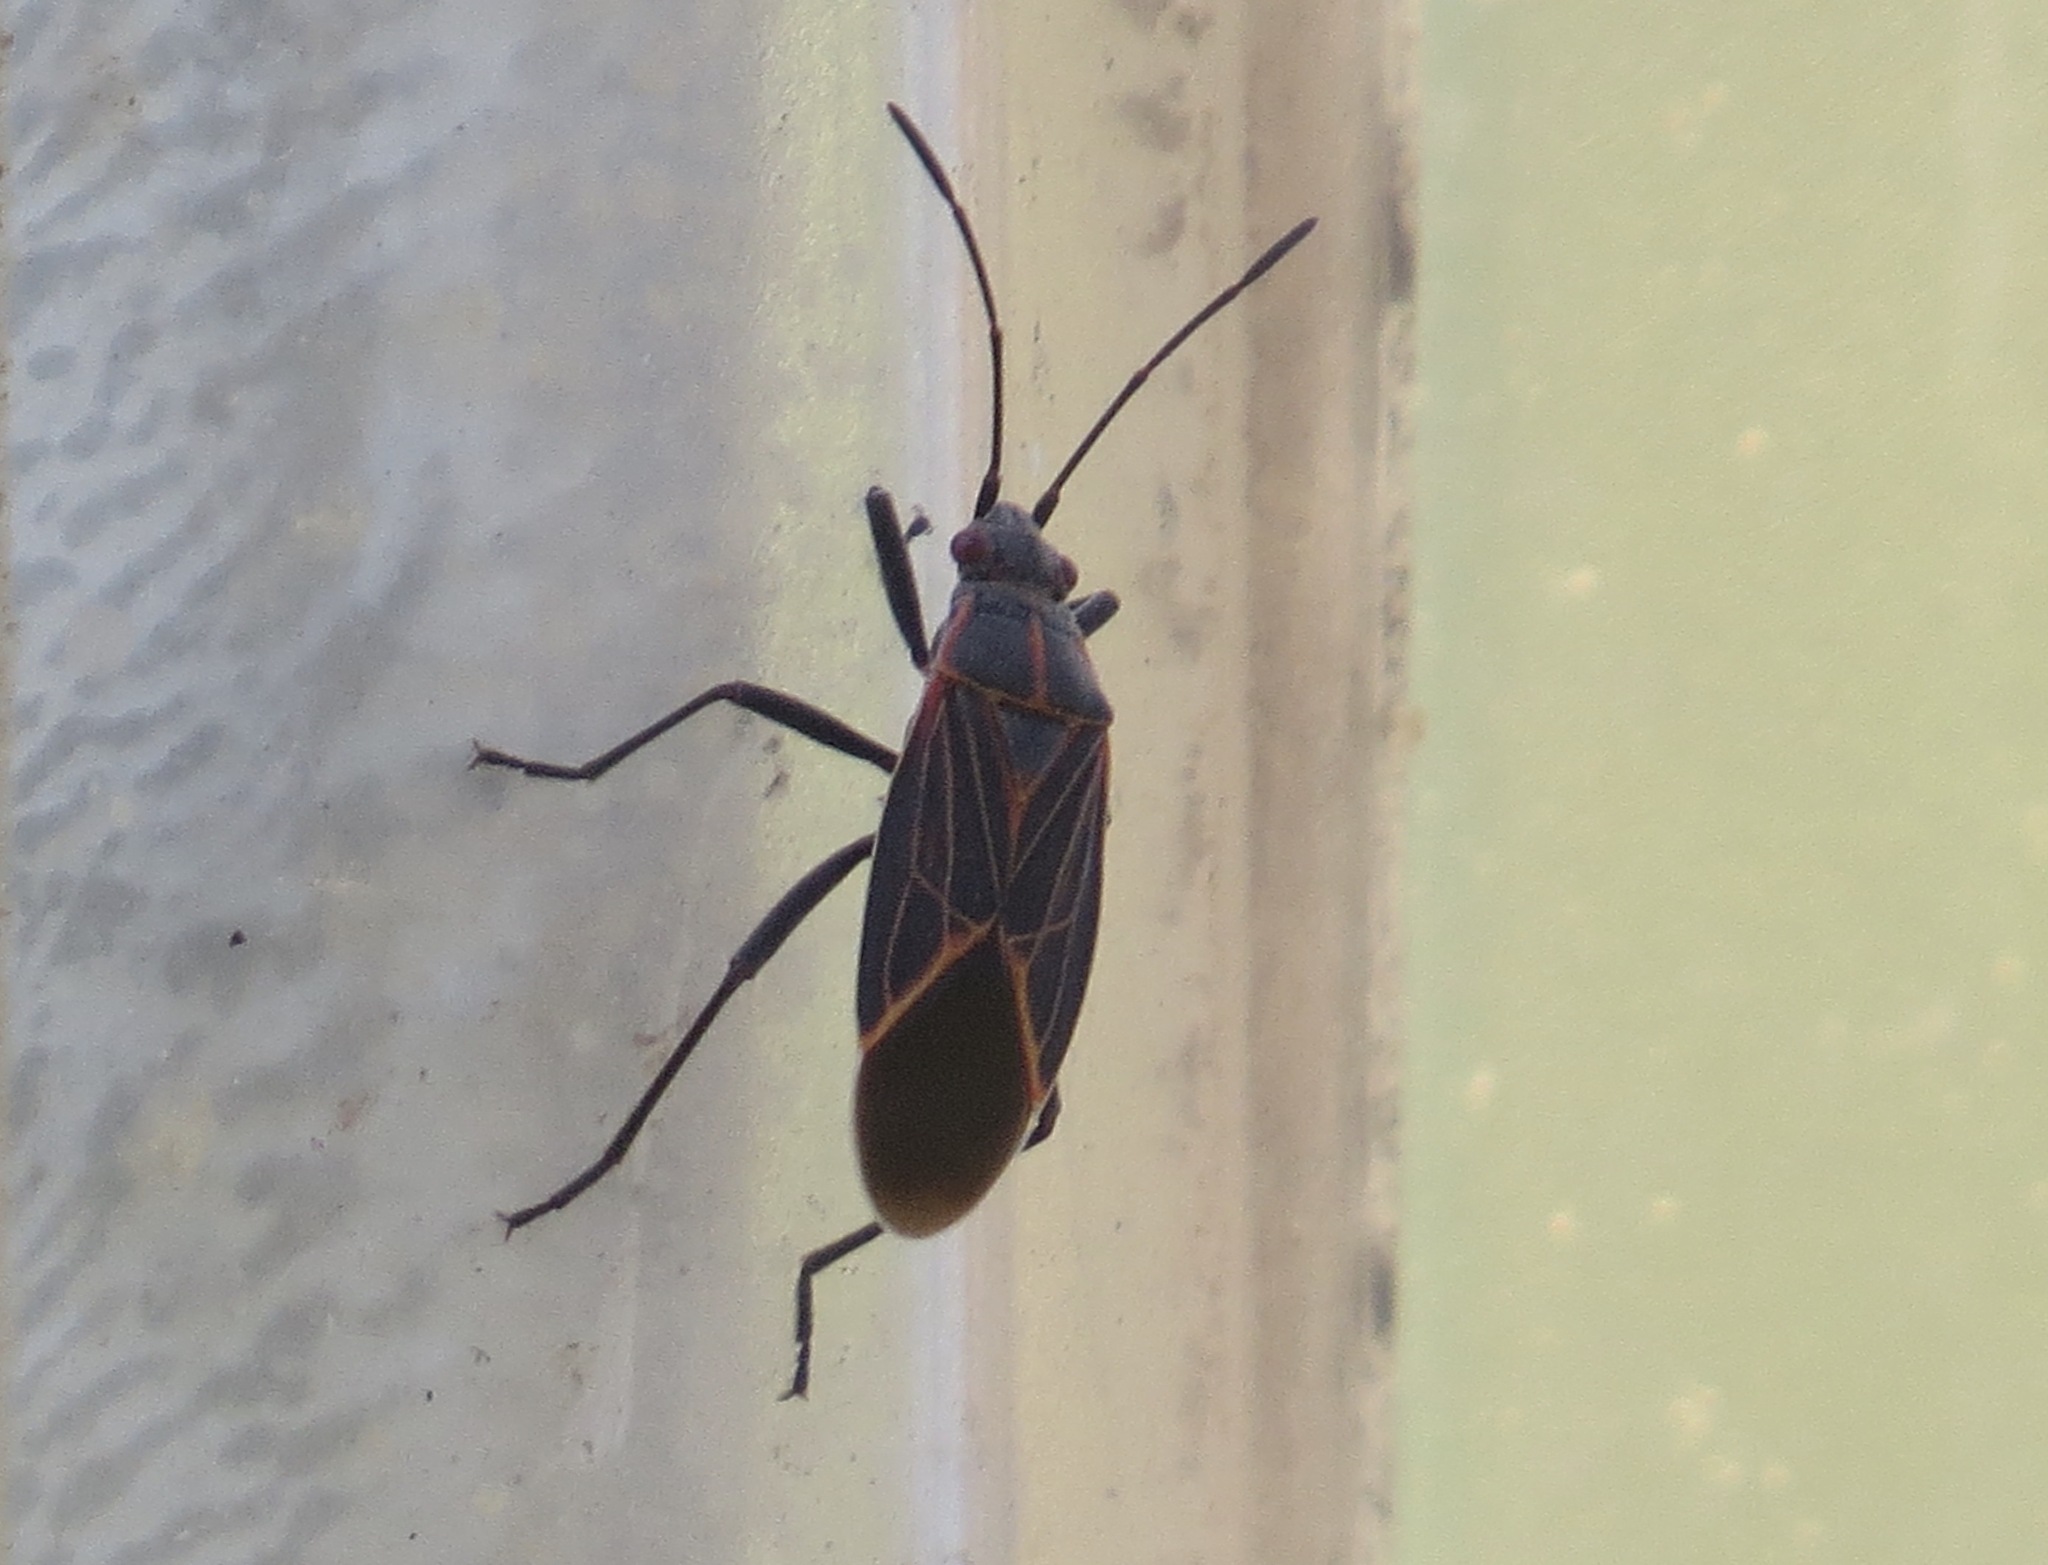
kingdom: Animalia
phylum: Arthropoda
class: Insecta
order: Hemiptera
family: Rhopalidae
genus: Boisea
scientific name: Boisea rubrolineata
